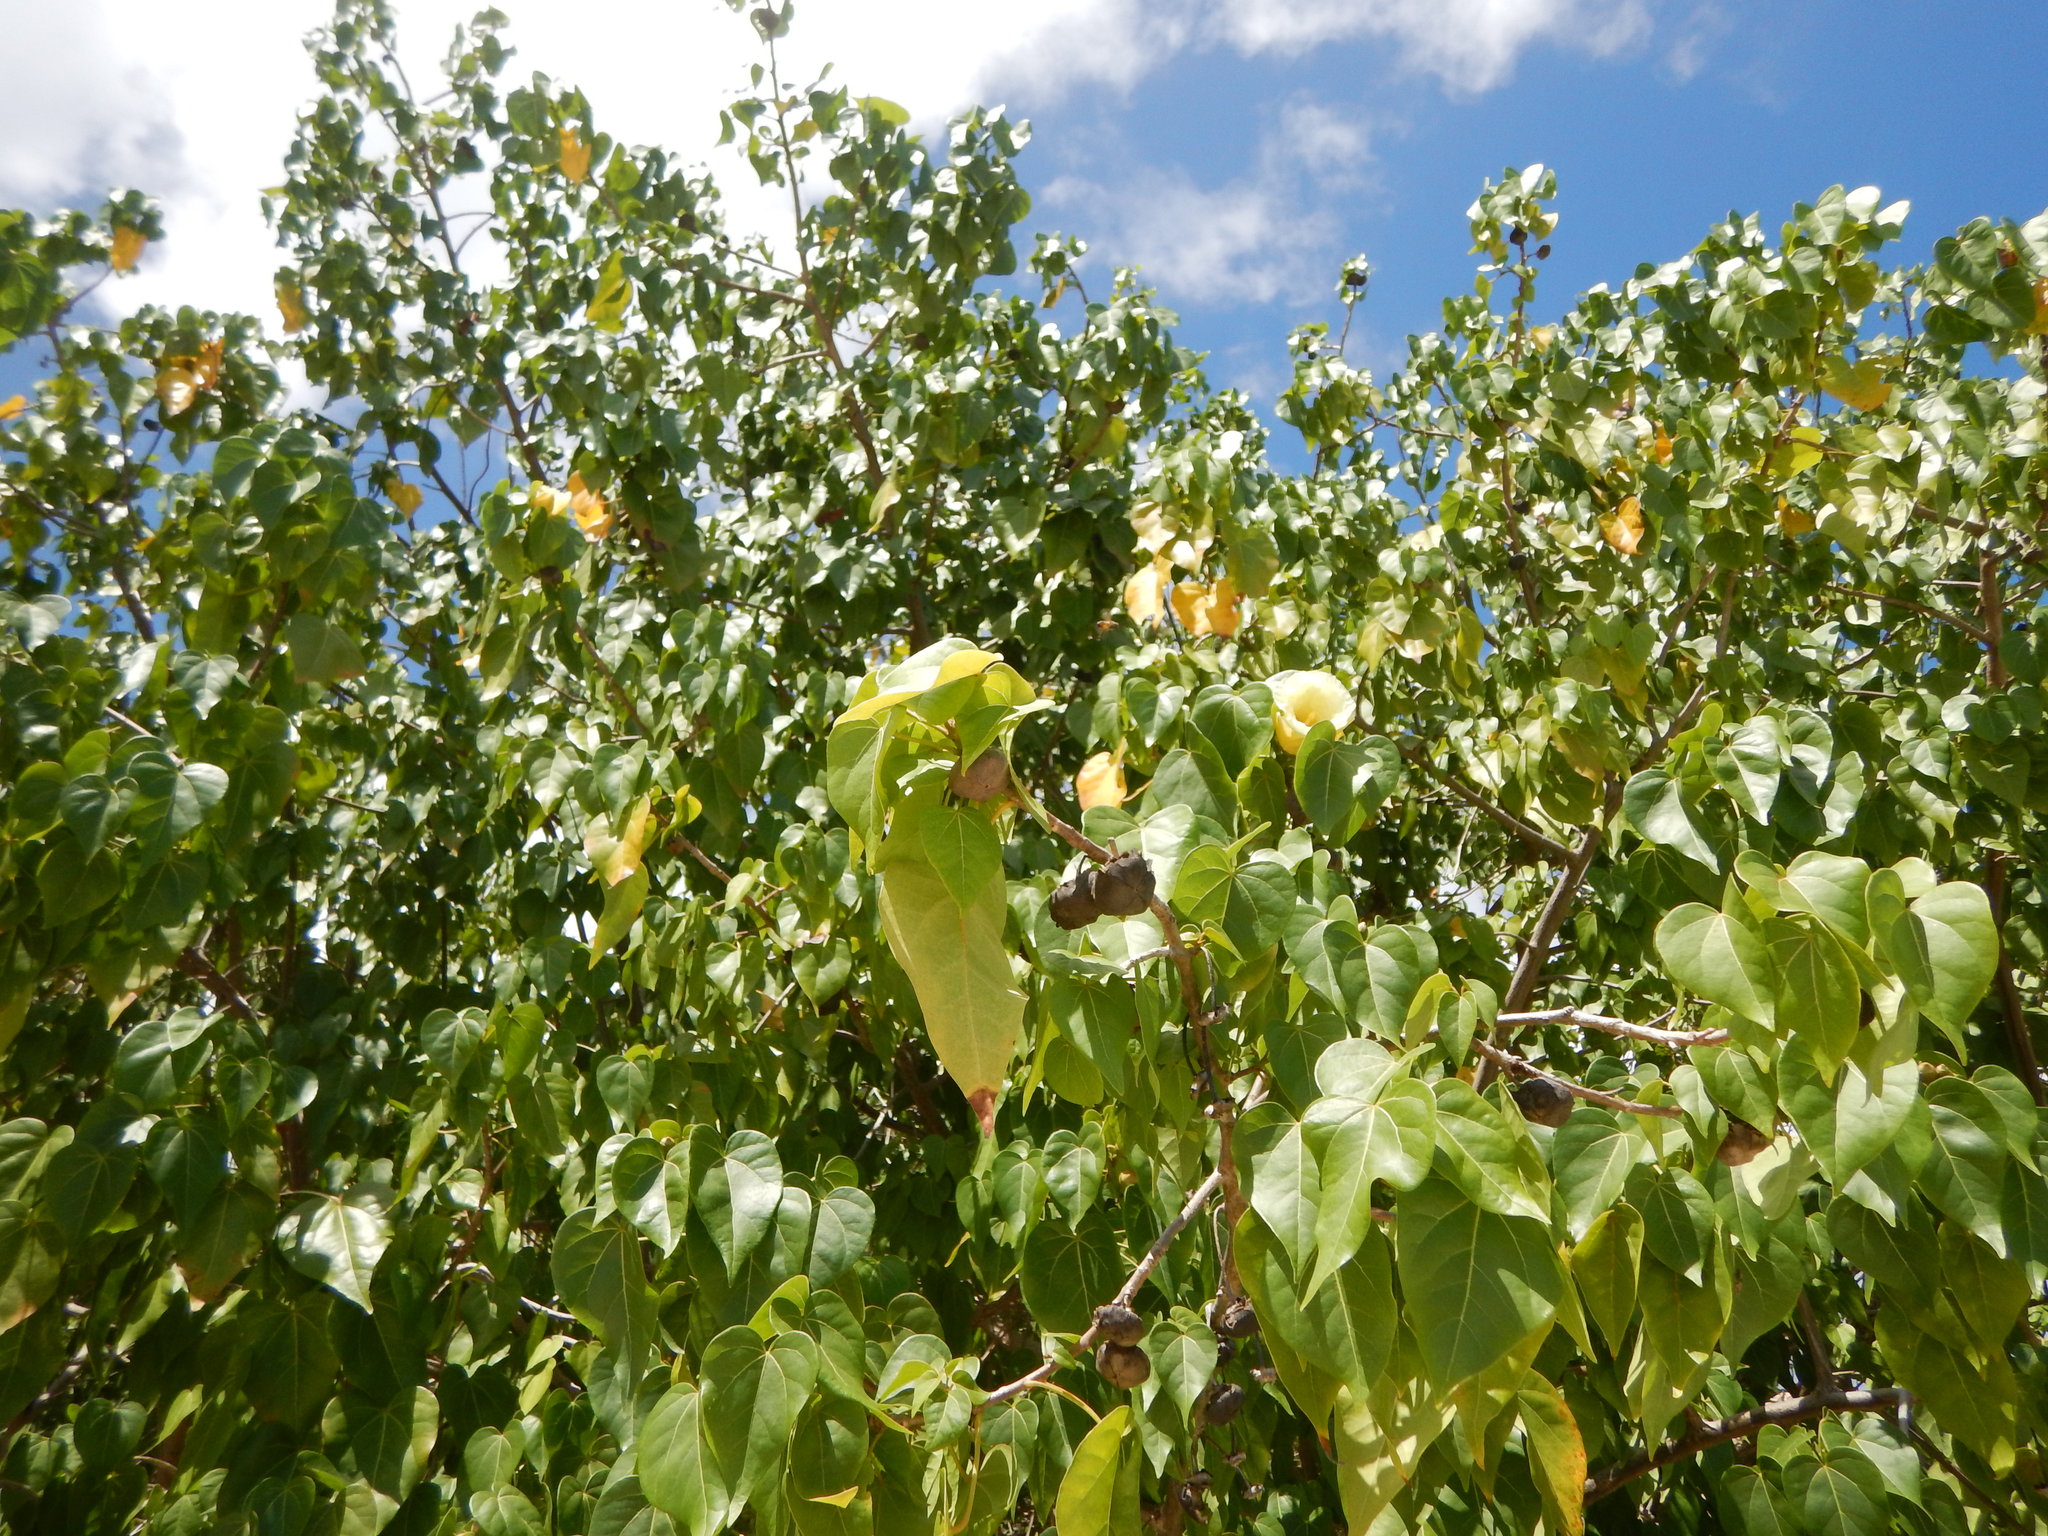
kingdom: Plantae
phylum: Tracheophyta
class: Magnoliopsida
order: Malvales
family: Malvaceae
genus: Thespesia
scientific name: Thespesia populnea
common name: Seaside mahoe
